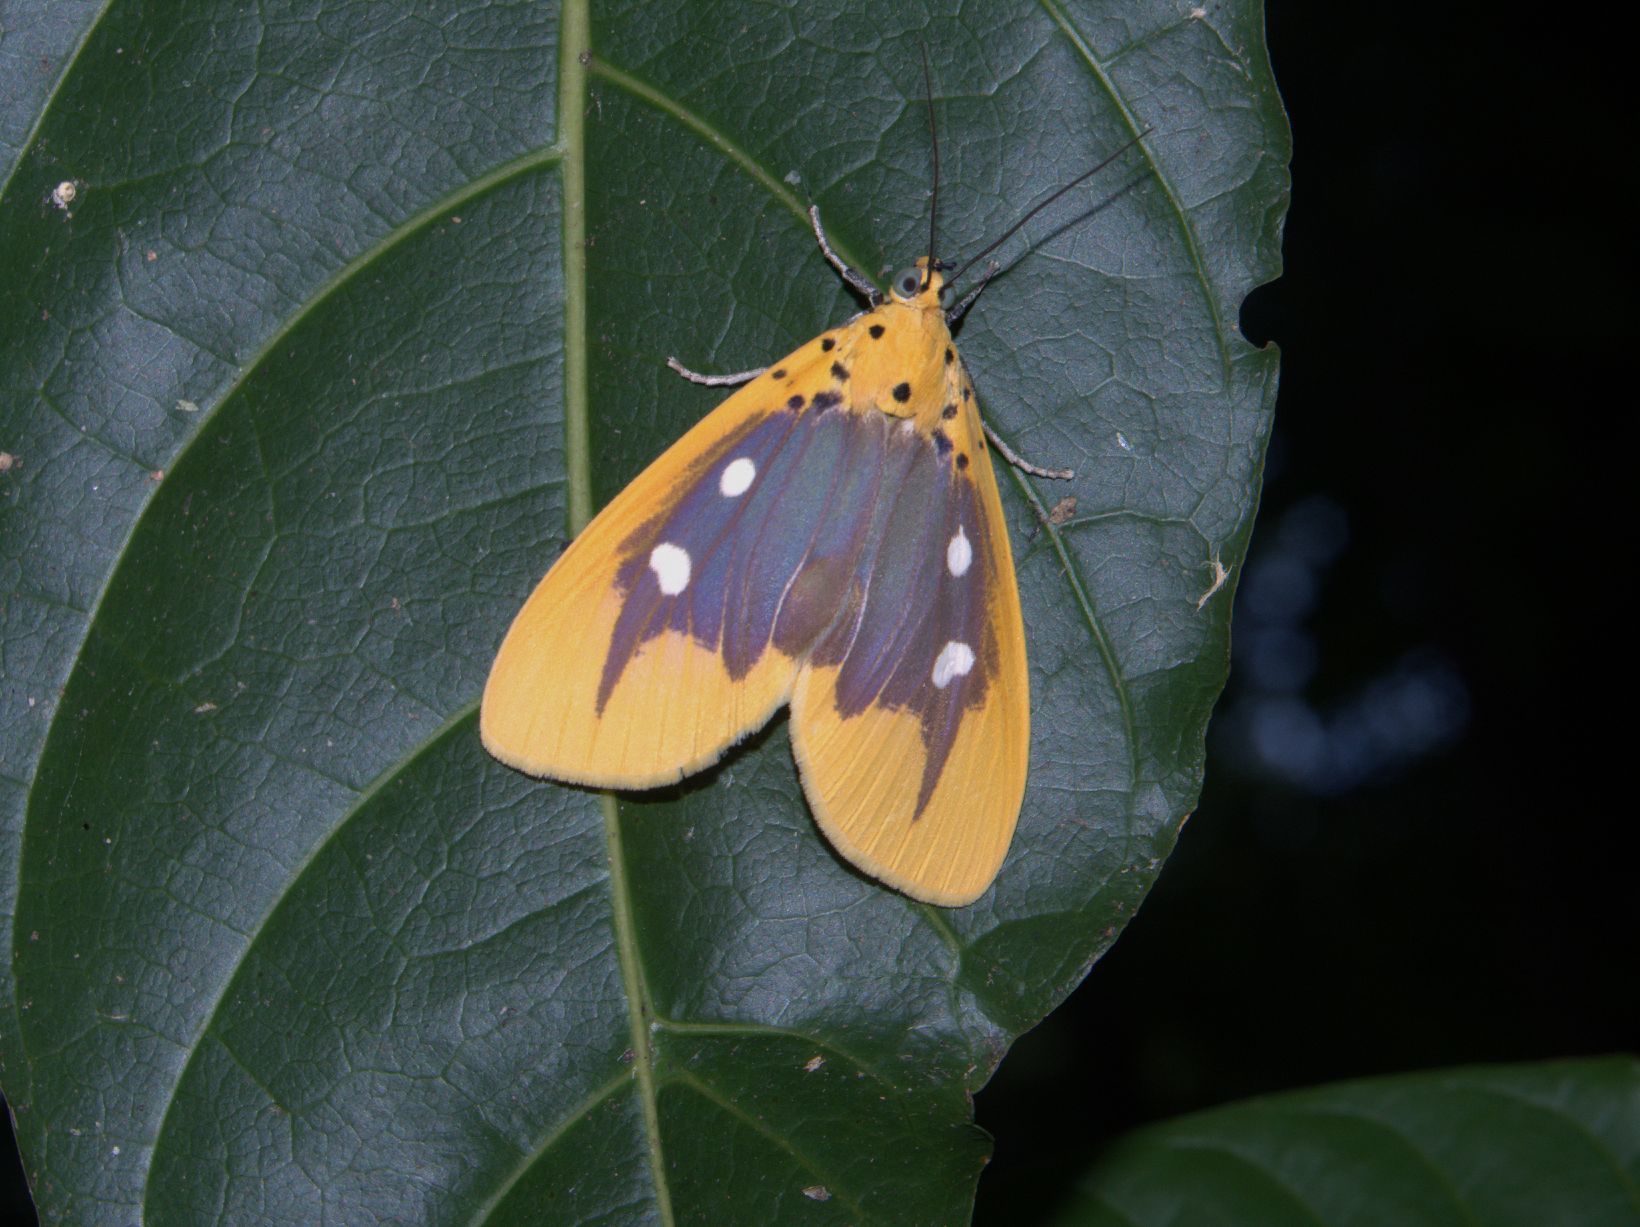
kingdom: Animalia
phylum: Arthropoda
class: Insecta
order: Lepidoptera
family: Erebidae
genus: Asota
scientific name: Asota javana
